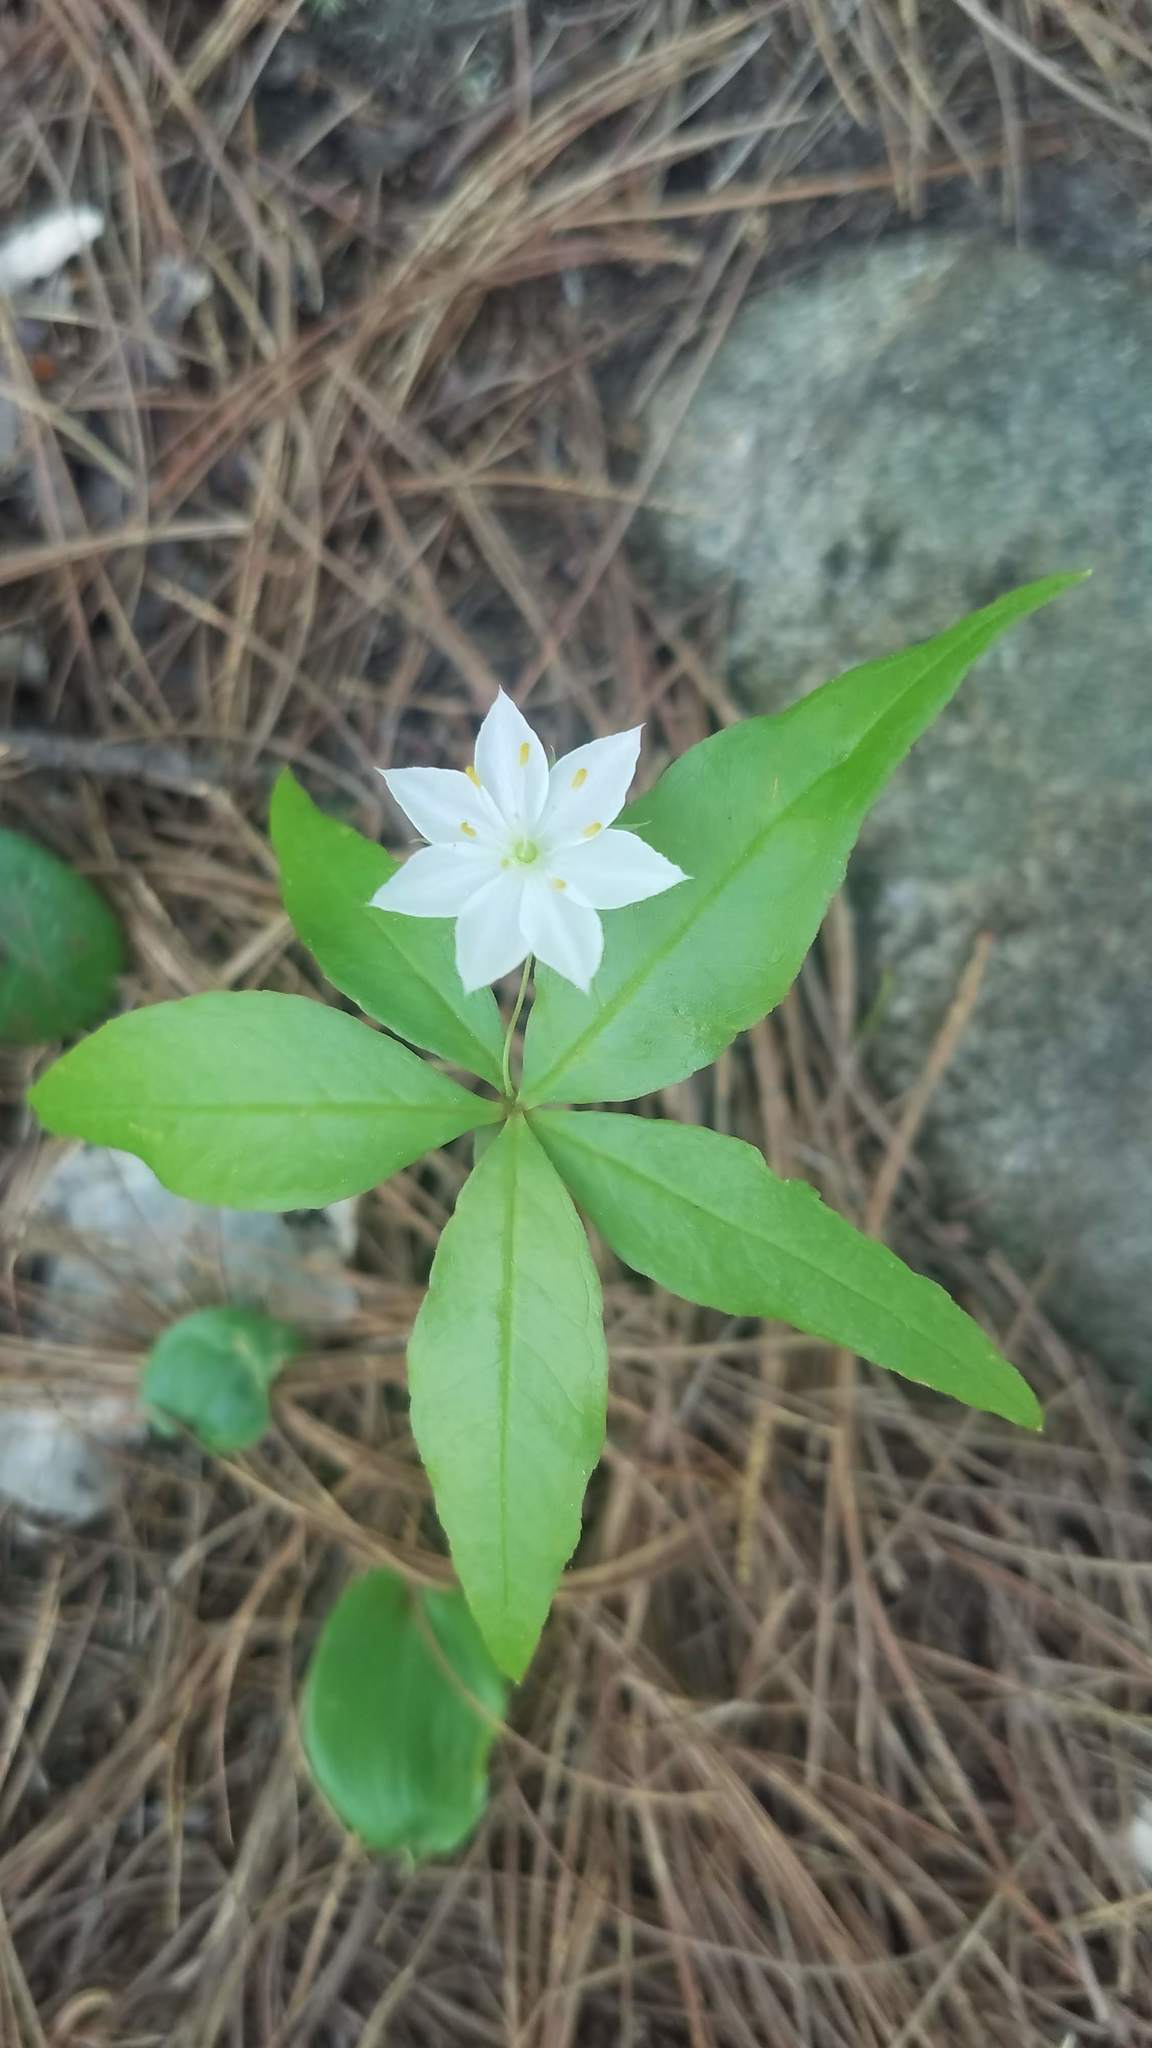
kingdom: Plantae
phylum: Tracheophyta
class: Magnoliopsida
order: Ericales
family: Primulaceae
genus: Lysimachia
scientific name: Lysimachia borealis
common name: American starflower
